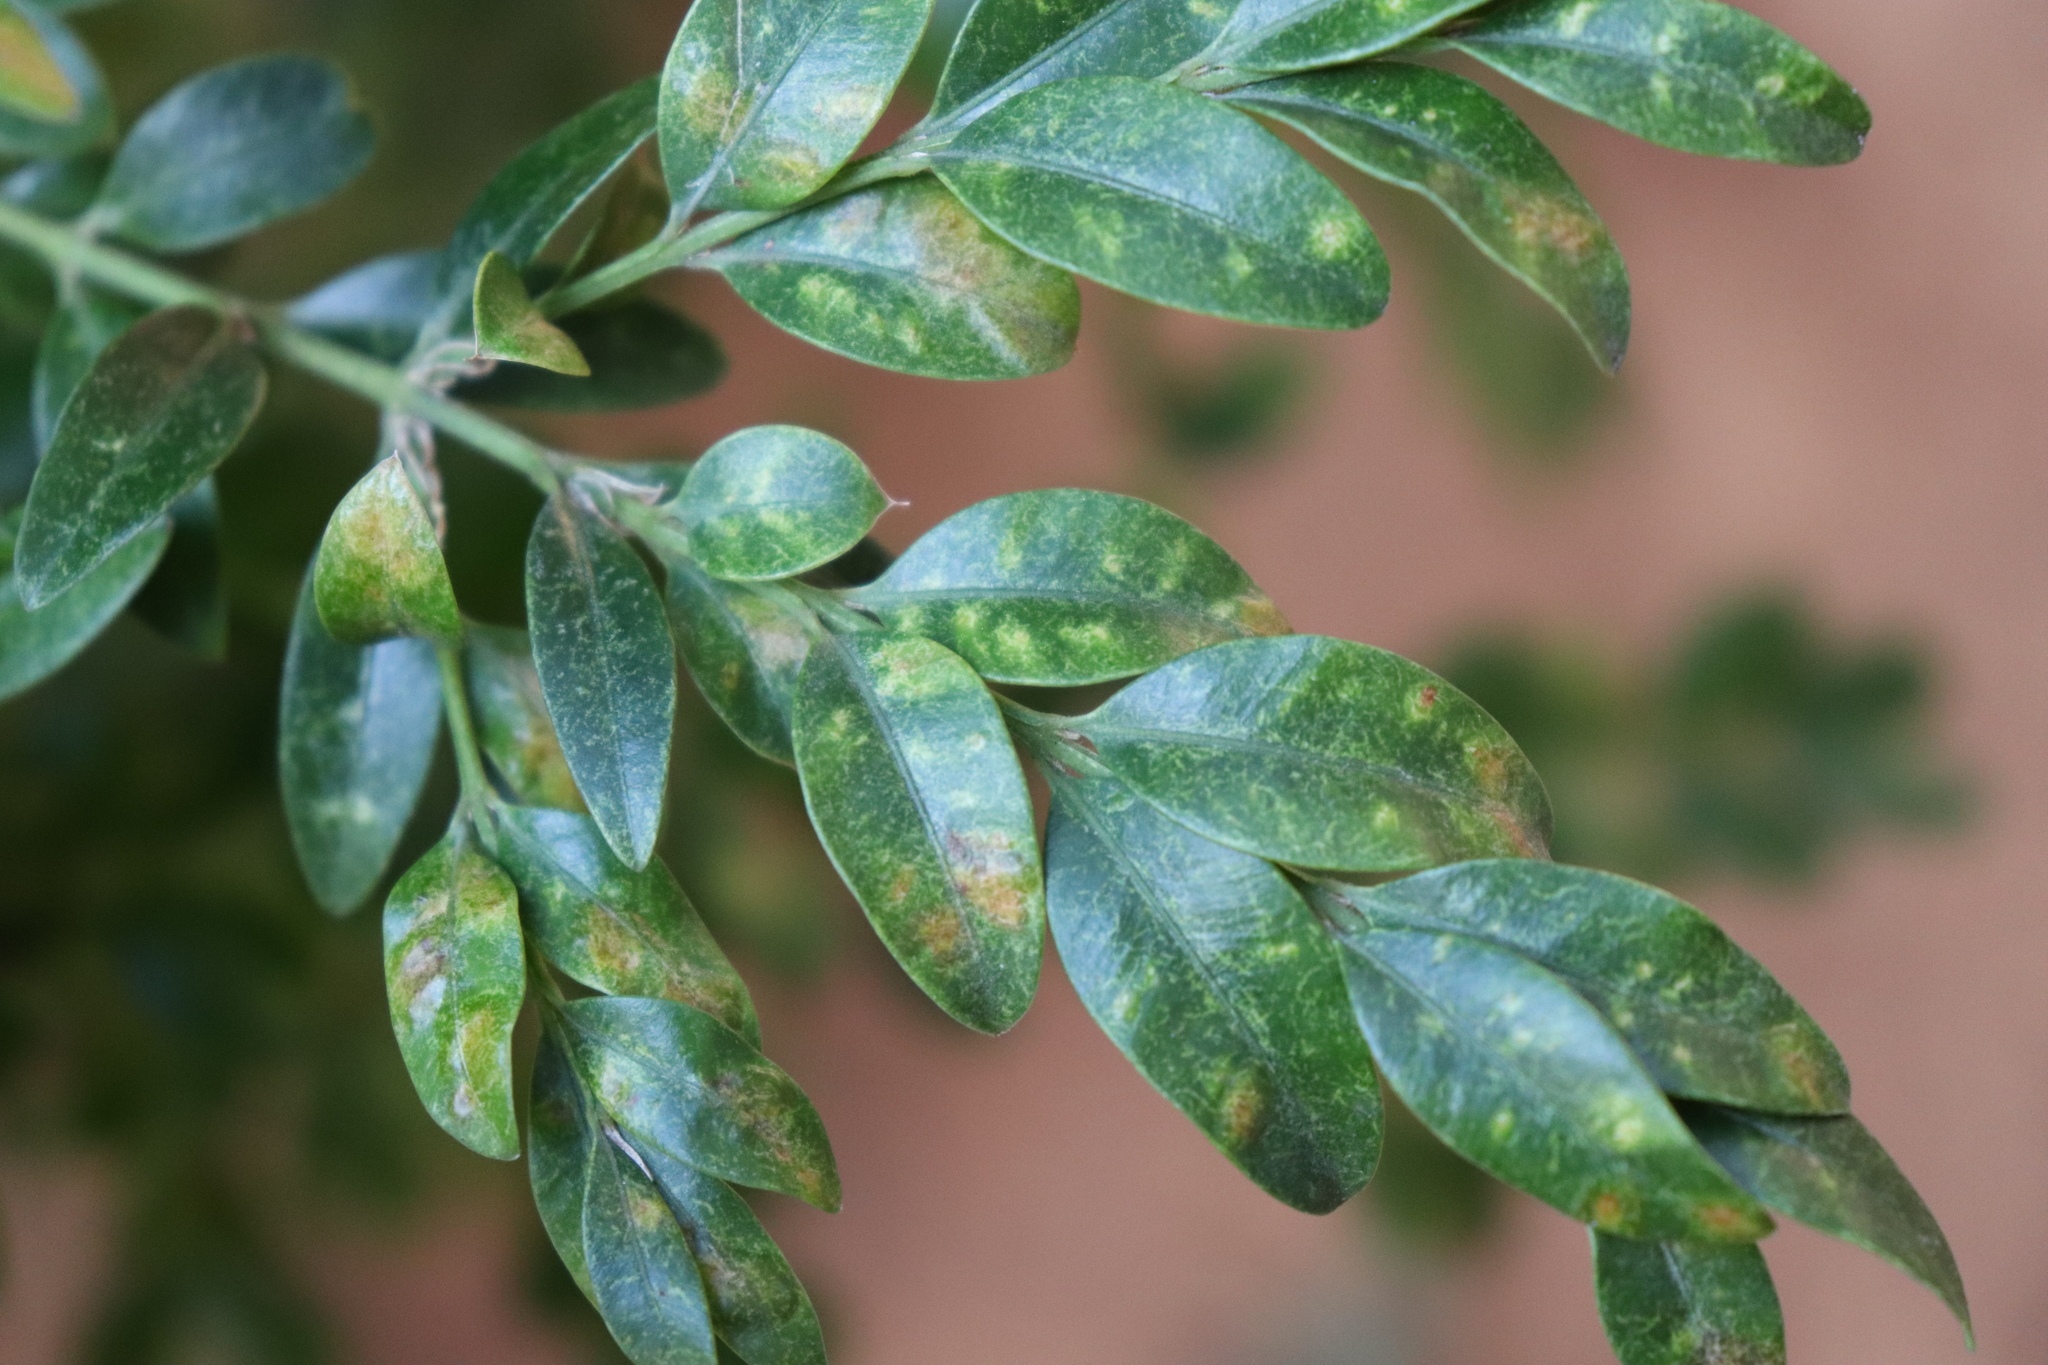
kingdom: Animalia
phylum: Arthropoda
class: Arachnida
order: Trombidiformes
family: Tetranychidae
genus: Eurytetranychus
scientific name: Eurytetranychus buxi
